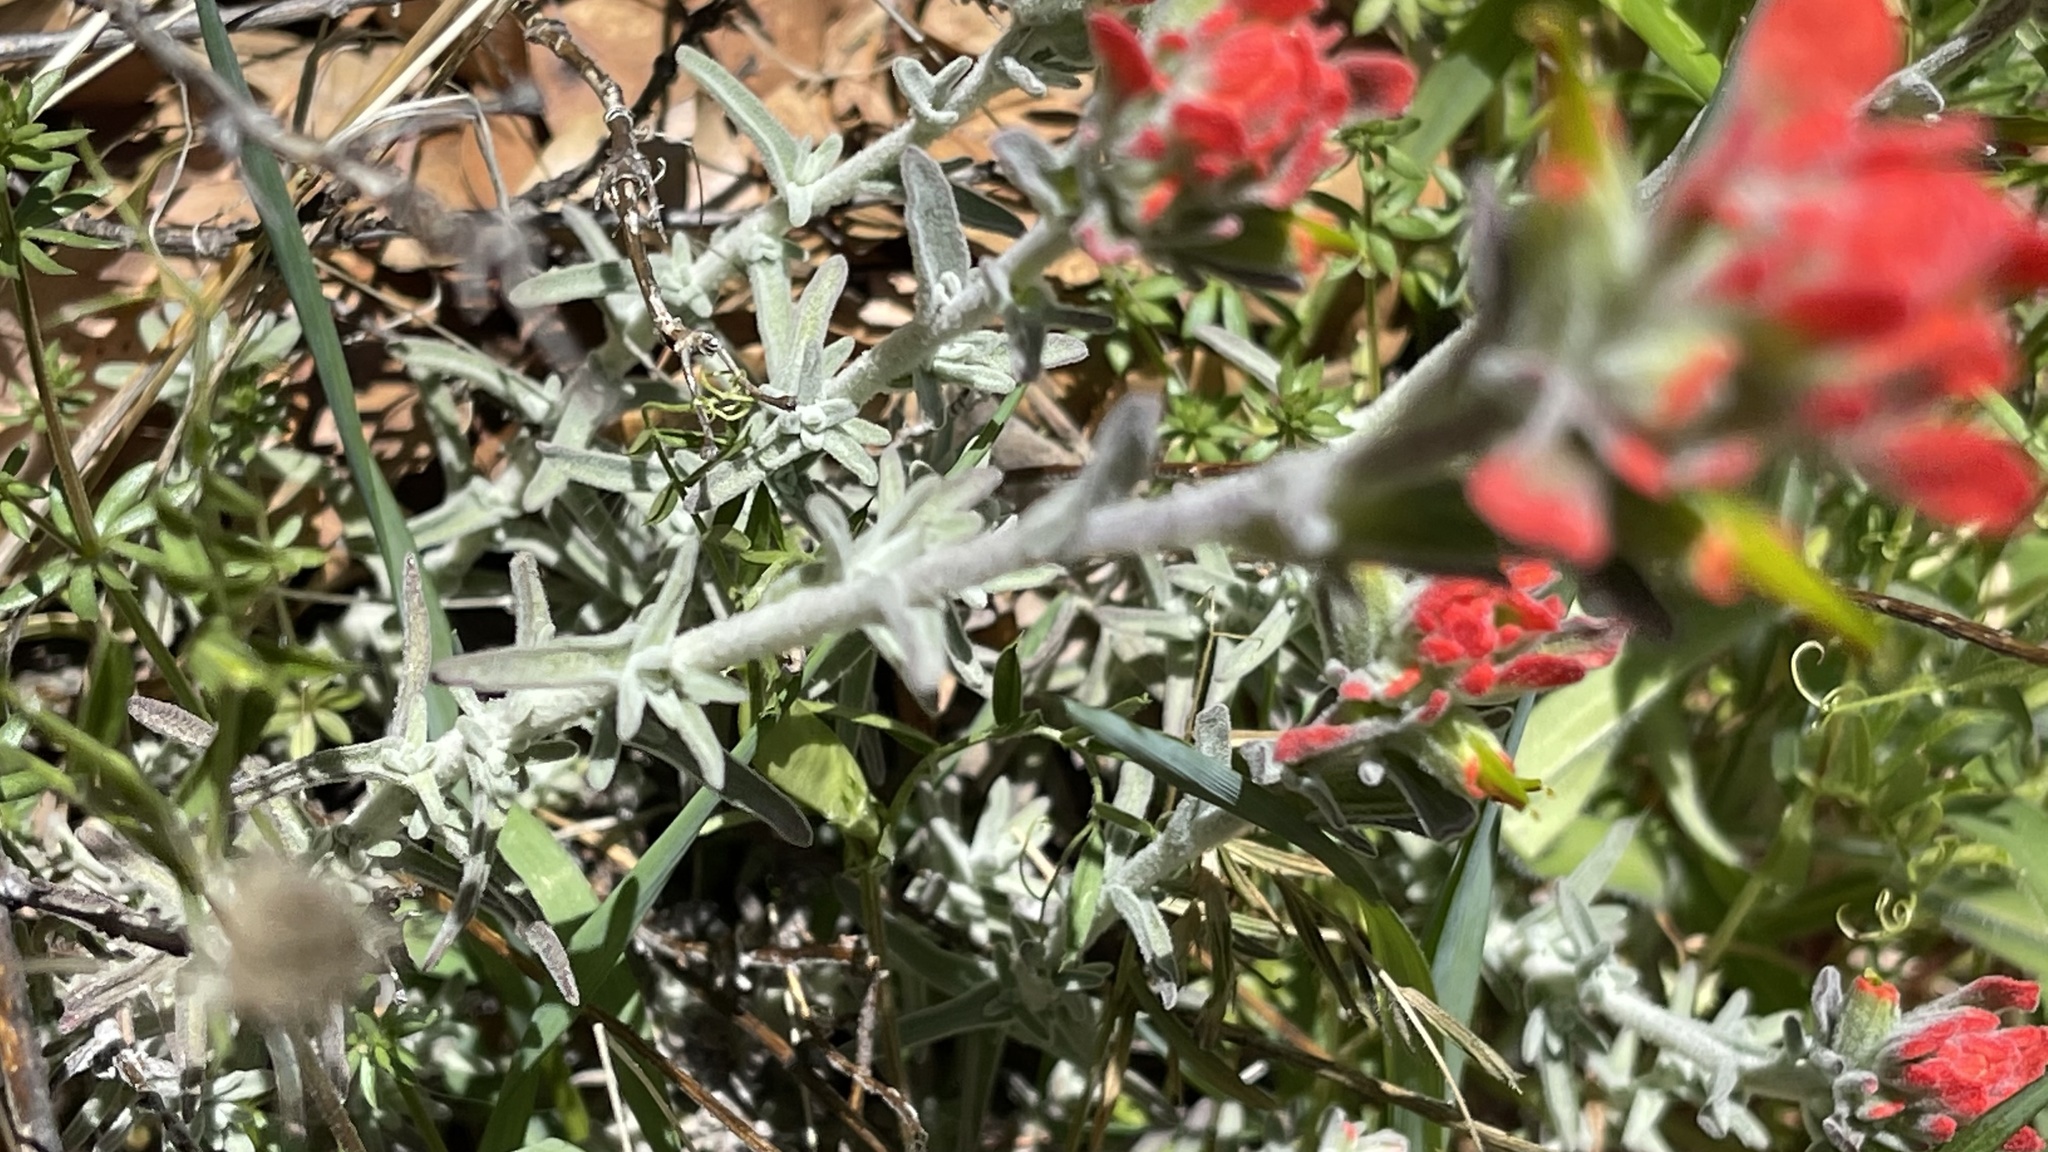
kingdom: Plantae
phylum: Tracheophyta
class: Magnoliopsida
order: Lamiales
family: Orobanchaceae
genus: Castilleja
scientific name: Castilleja foliolosa
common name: Woolly indian paintbrush
